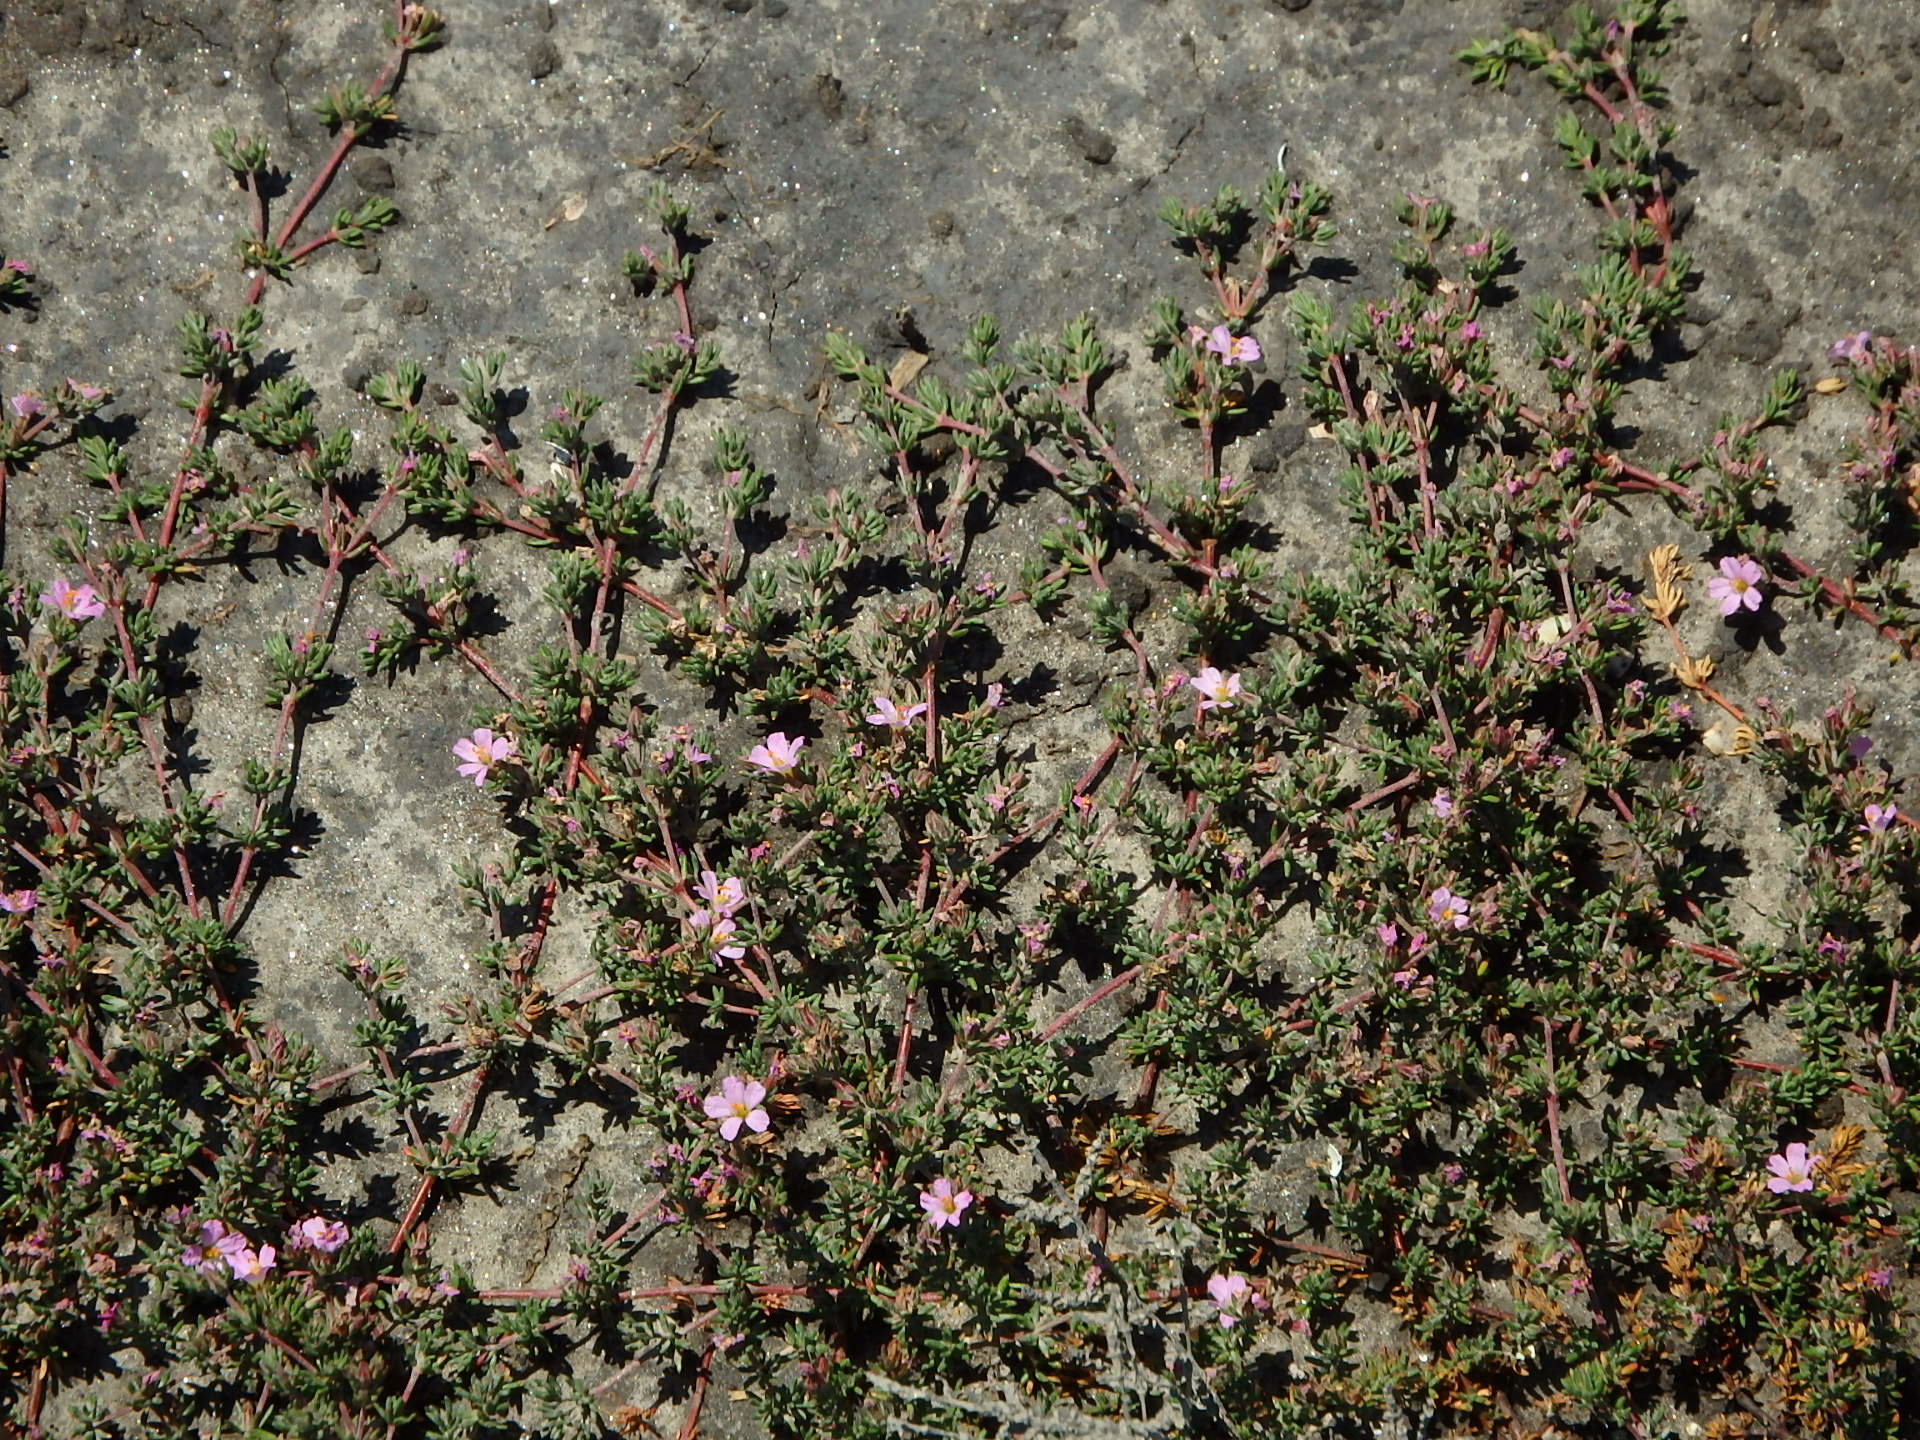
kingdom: Plantae
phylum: Tracheophyta
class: Magnoliopsida
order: Caryophyllales
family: Frankeniaceae
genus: Frankenia
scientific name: Frankenia laevis
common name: Sea-heath
